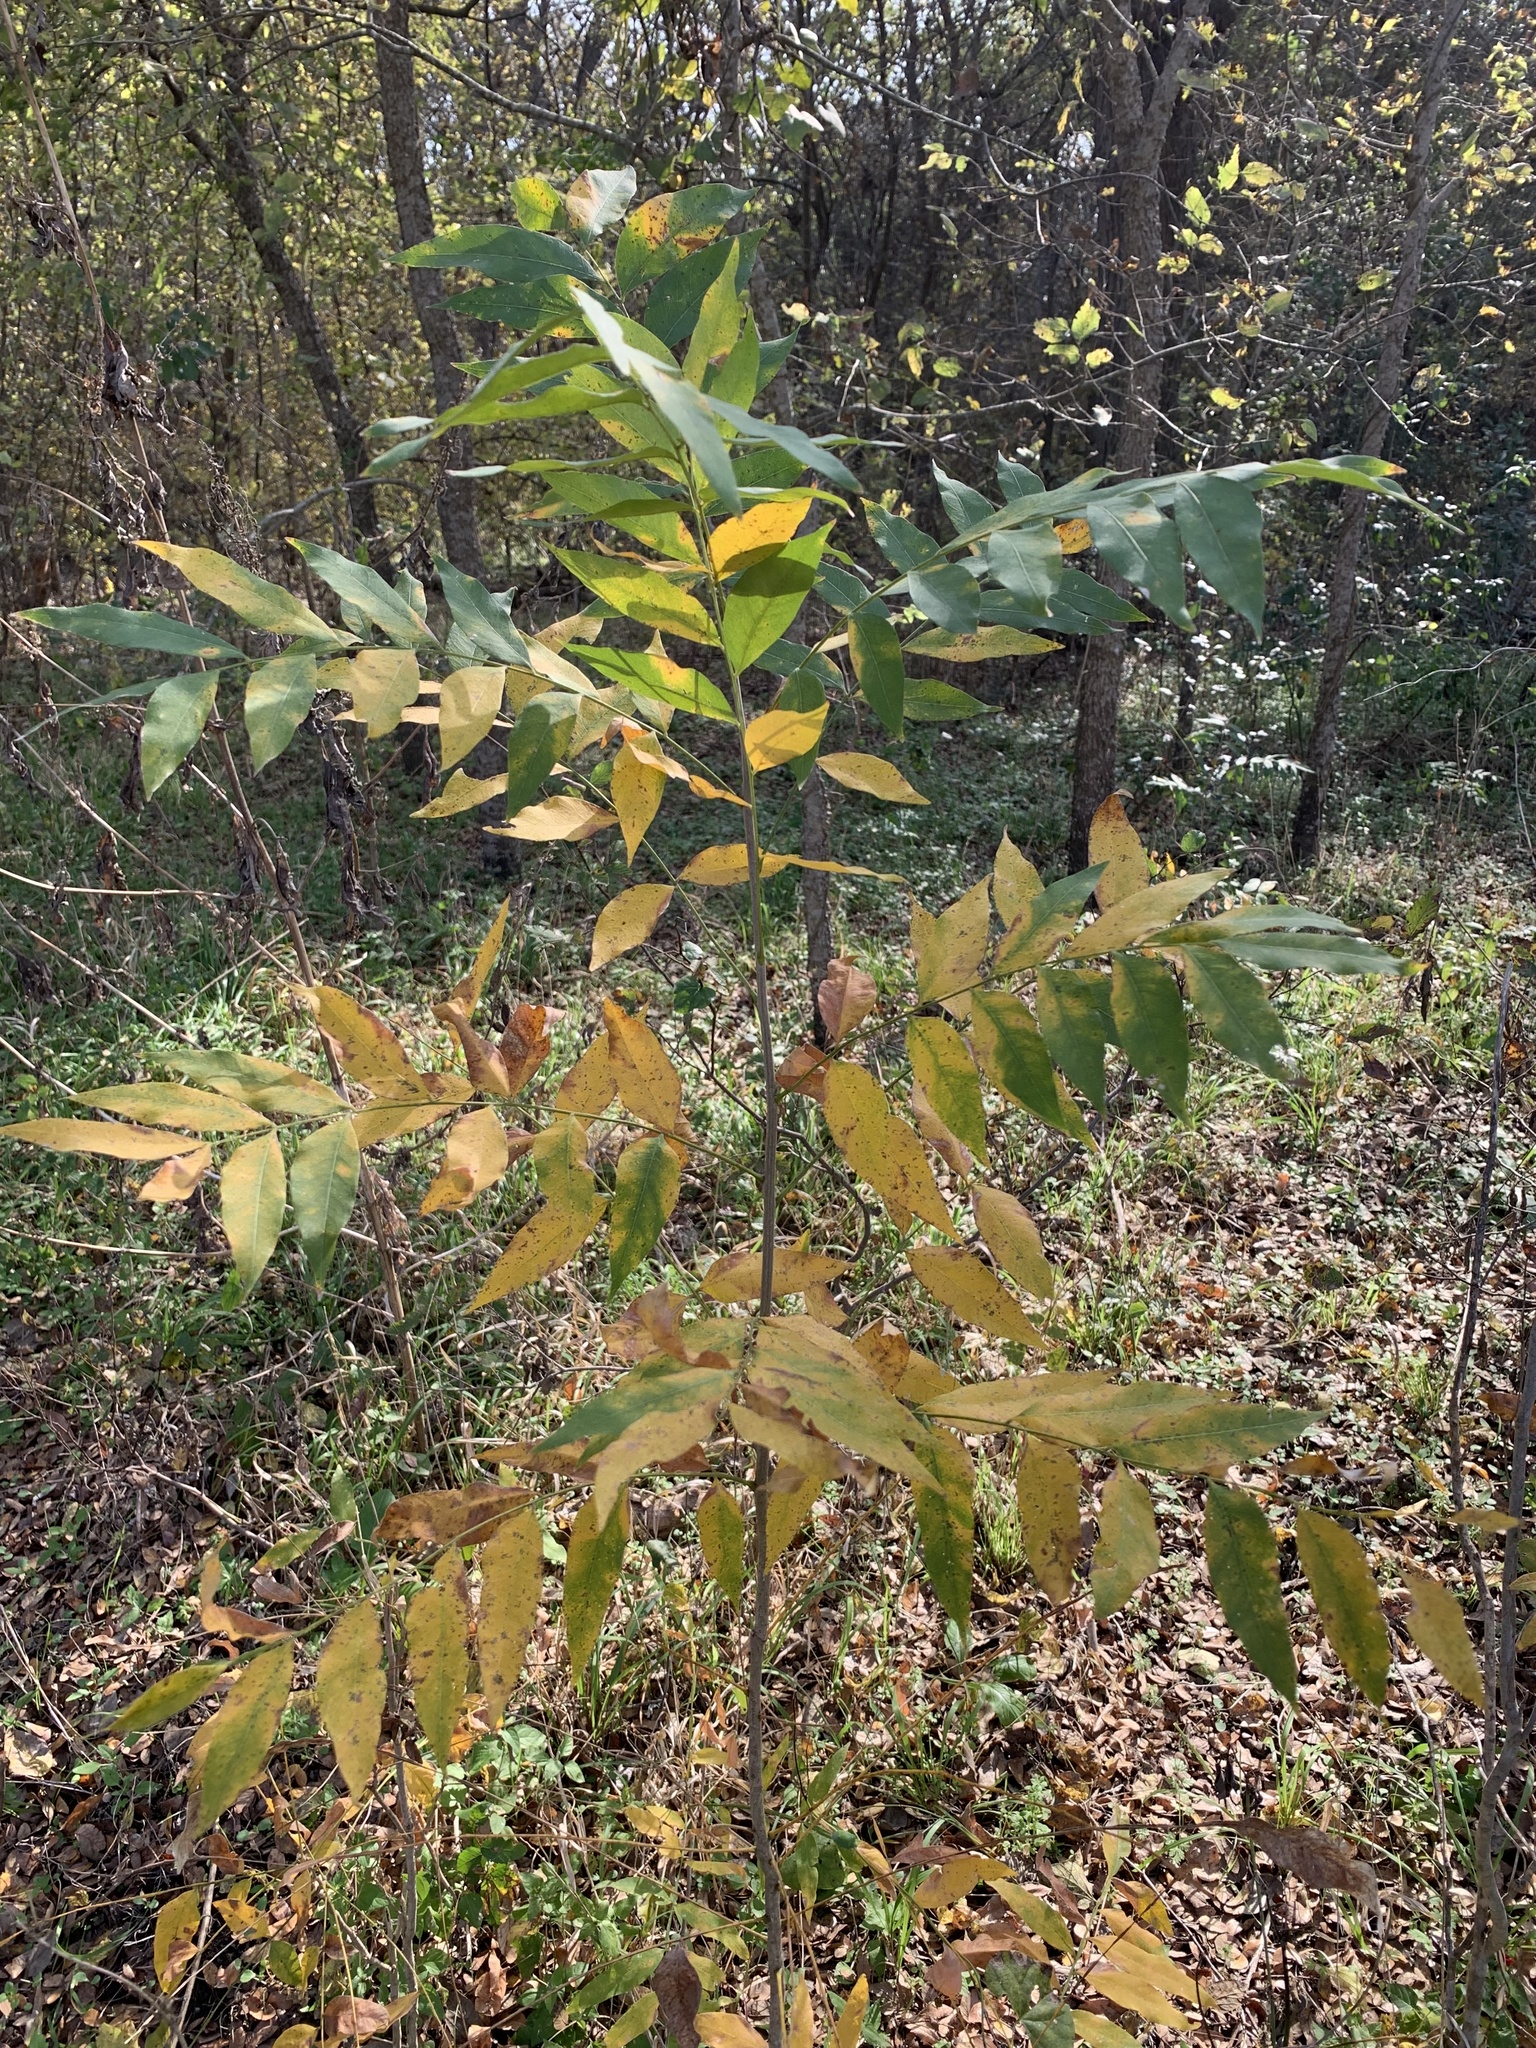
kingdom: Plantae
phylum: Tracheophyta
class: Magnoliopsida
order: Sapindales
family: Sapindaceae
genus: Sapindus
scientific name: Sapindus drummondii
